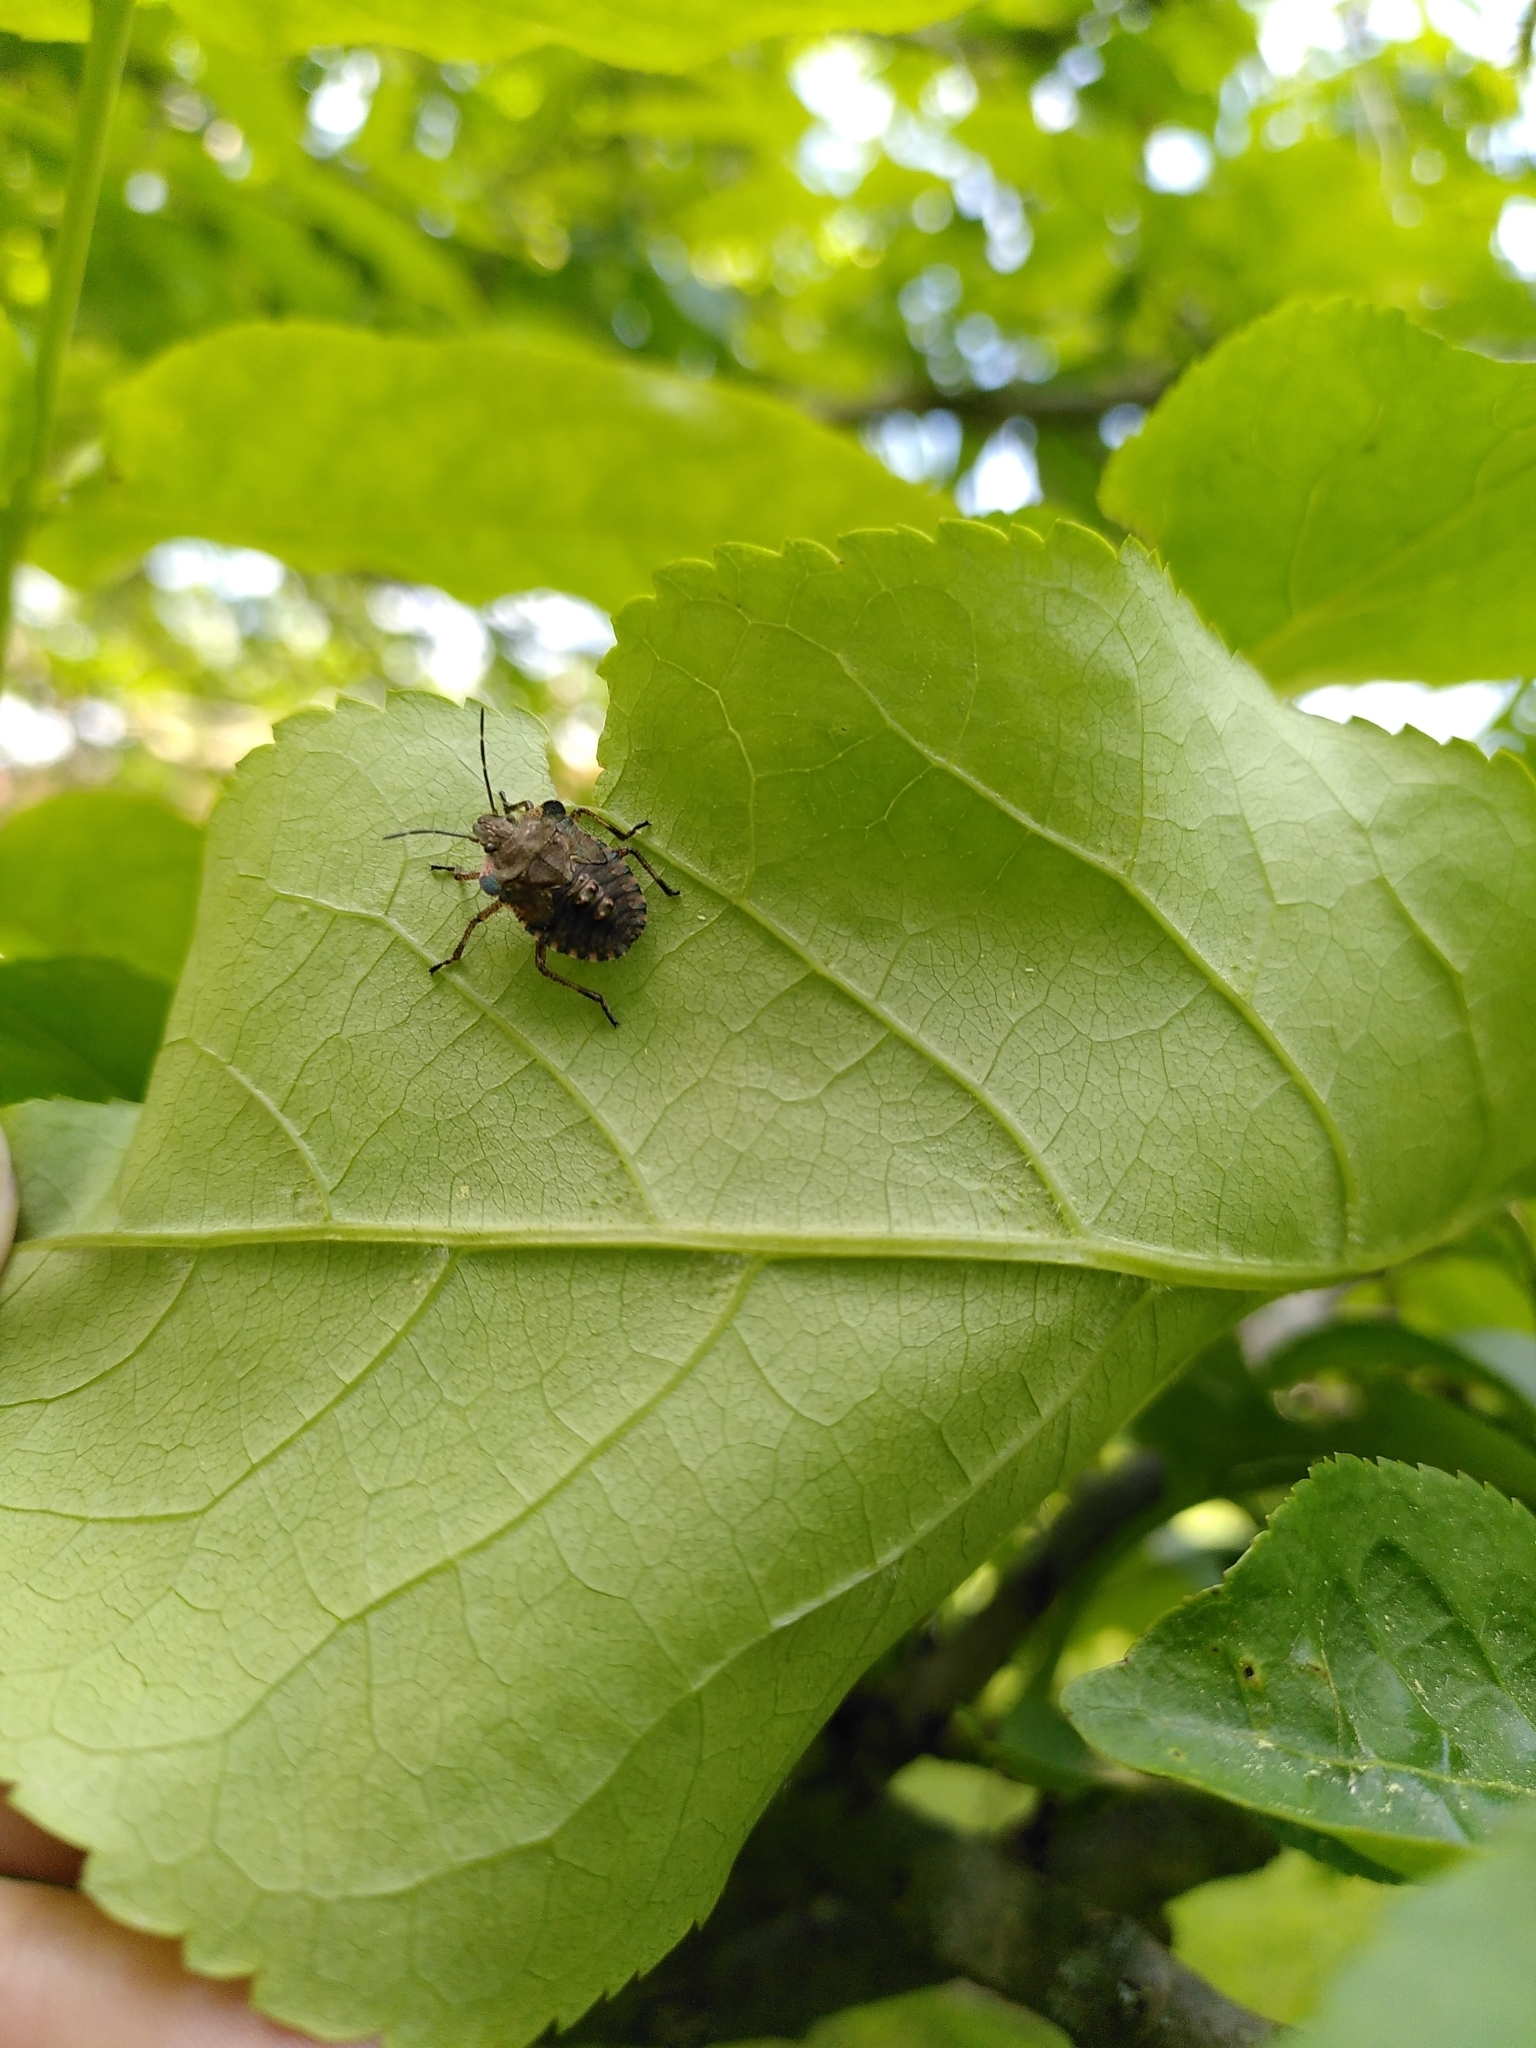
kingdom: Animalia
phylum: Arthropoda
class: Insecta
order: Hemiptera
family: Pentatomidae
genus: Pentatoma
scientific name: Pentatoma rufipes
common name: Forest bug
